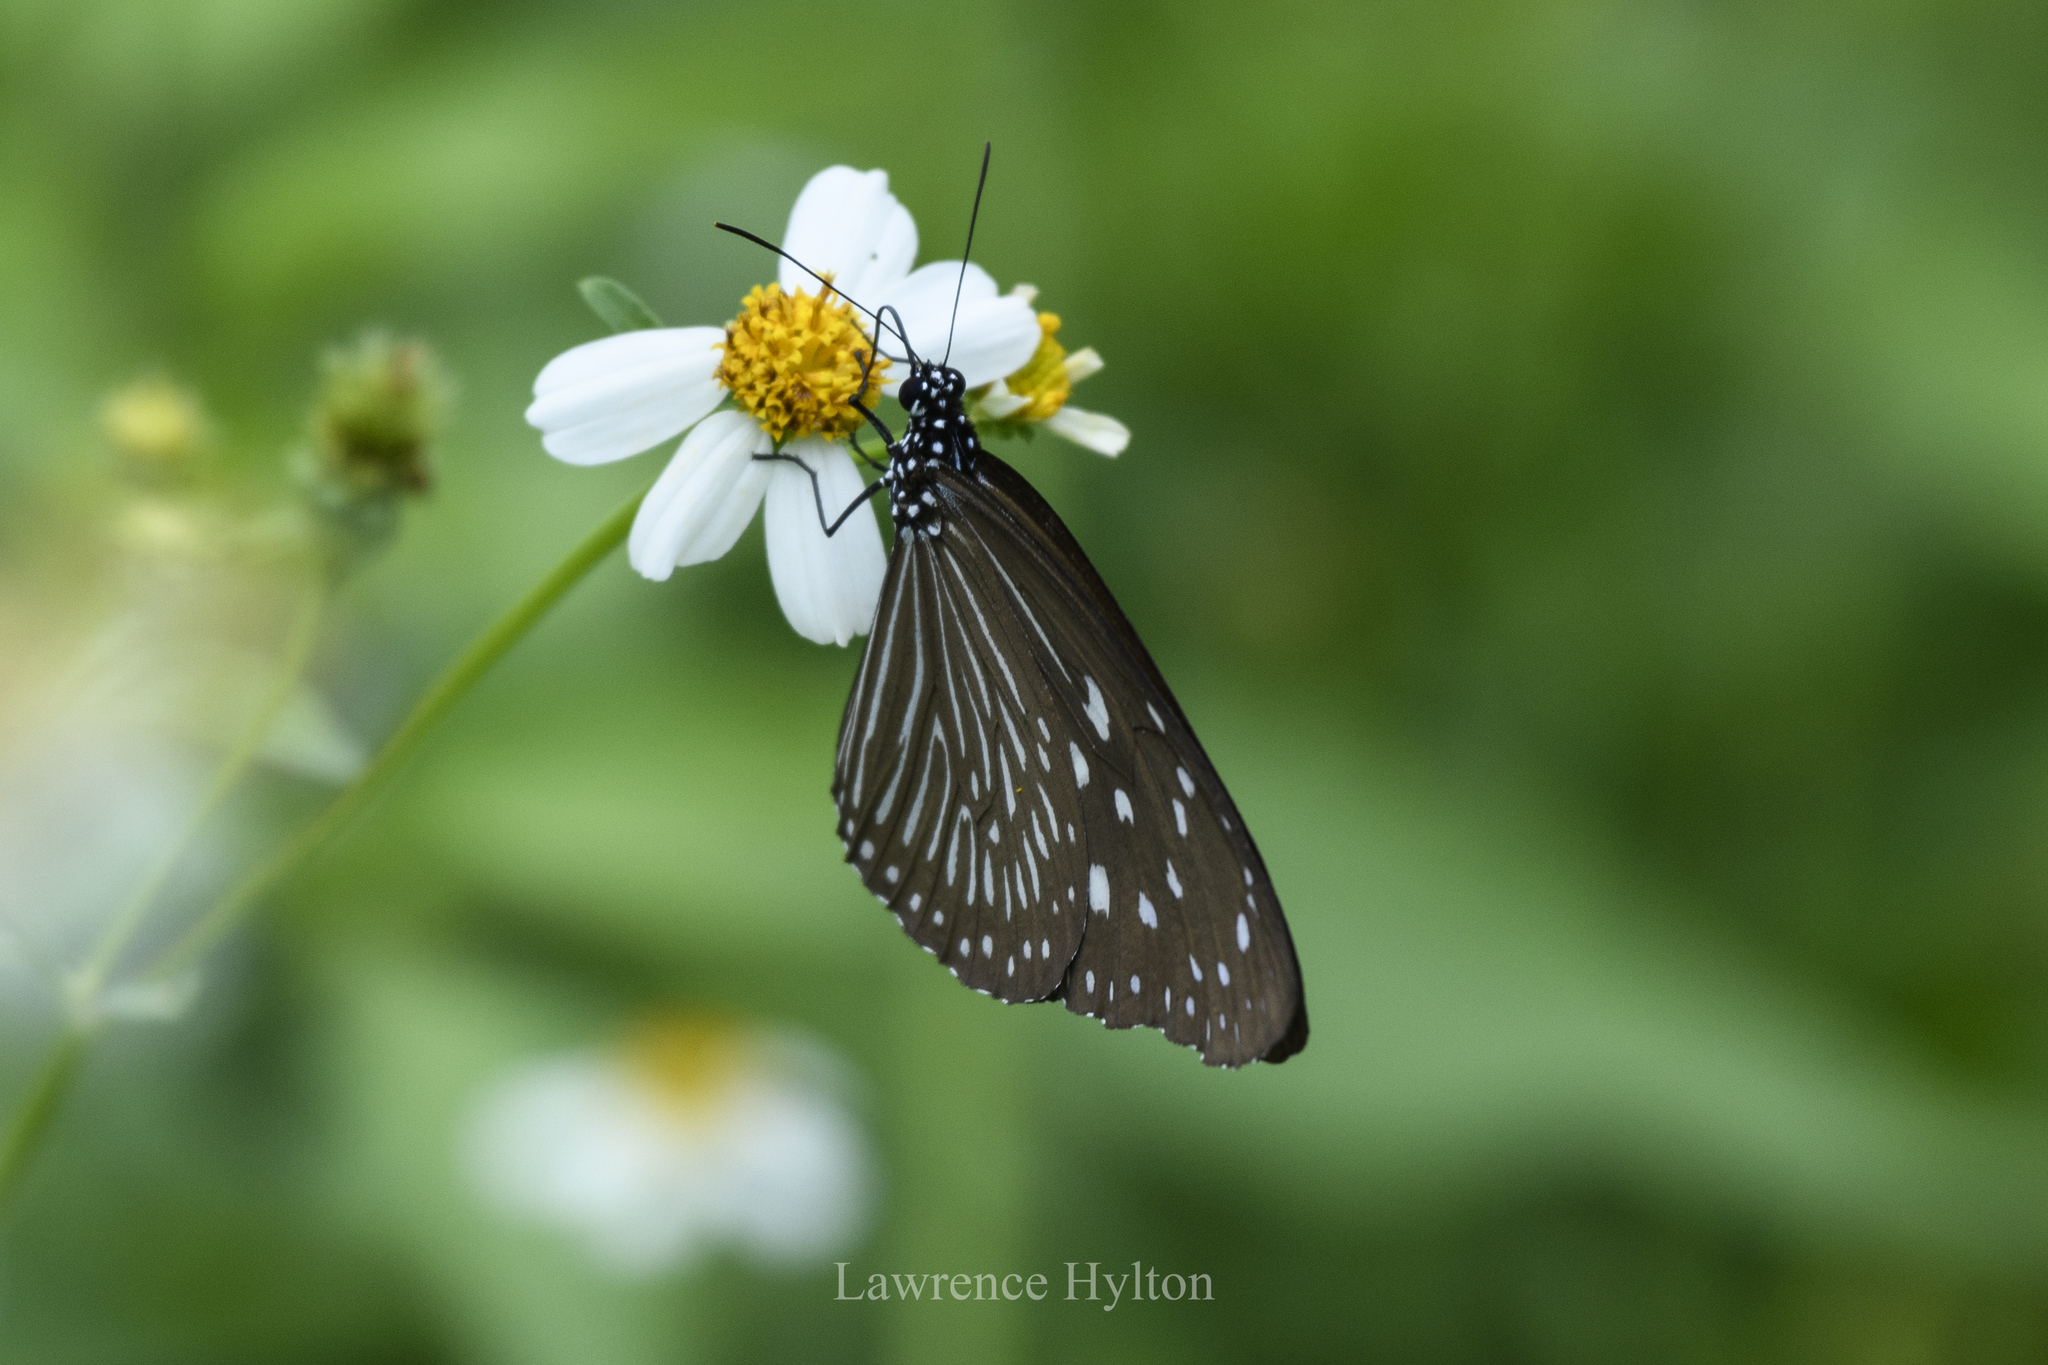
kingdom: Animalia
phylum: Arthropoda
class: Insecta
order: Lepidoptera
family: Nymphalidae
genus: Euploea
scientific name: Euploea mulciber
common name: Striped blue crow butterfly
